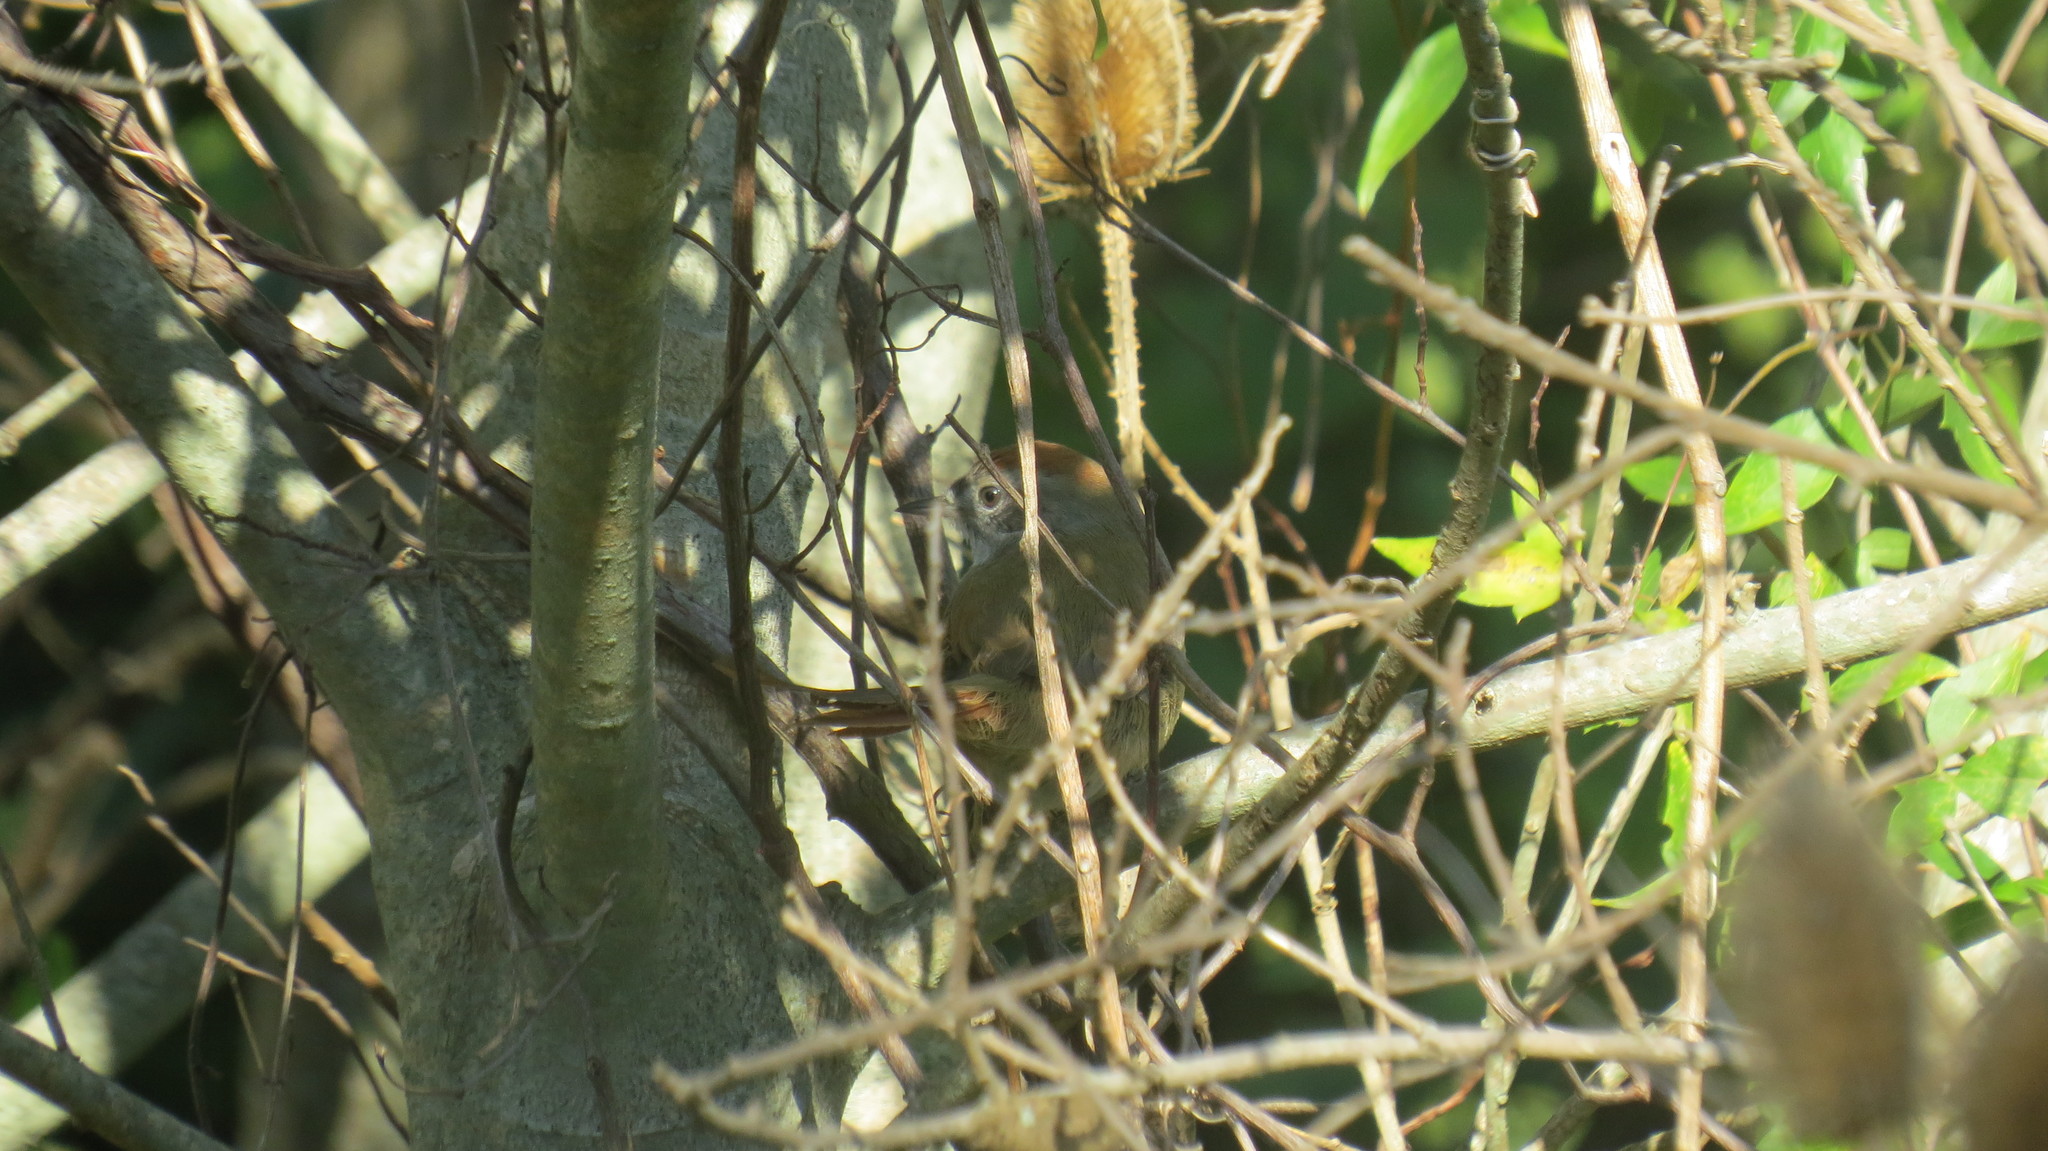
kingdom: Animalia
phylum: Chordata
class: Aves
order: Passeriformes
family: Furnariidae
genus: Phacellodomus
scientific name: Phacellodomus striaticollis
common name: Freckle-breasted thornbird
